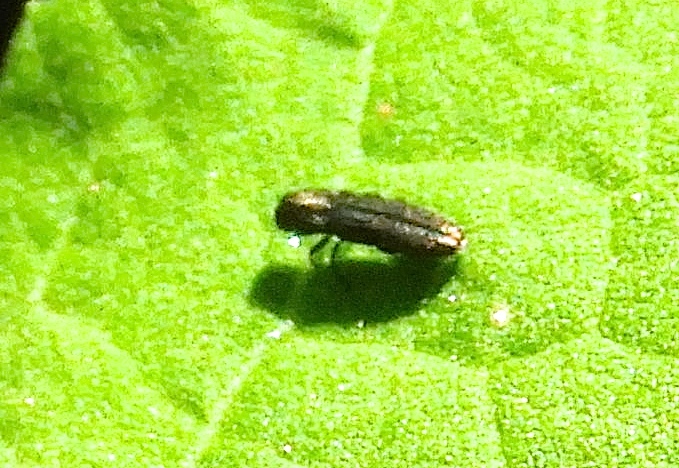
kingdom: Animalia
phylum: Arthropoda
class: Insecta
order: Coleoptera
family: Buprestidae
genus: Paragrilus
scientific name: Paragrilus
